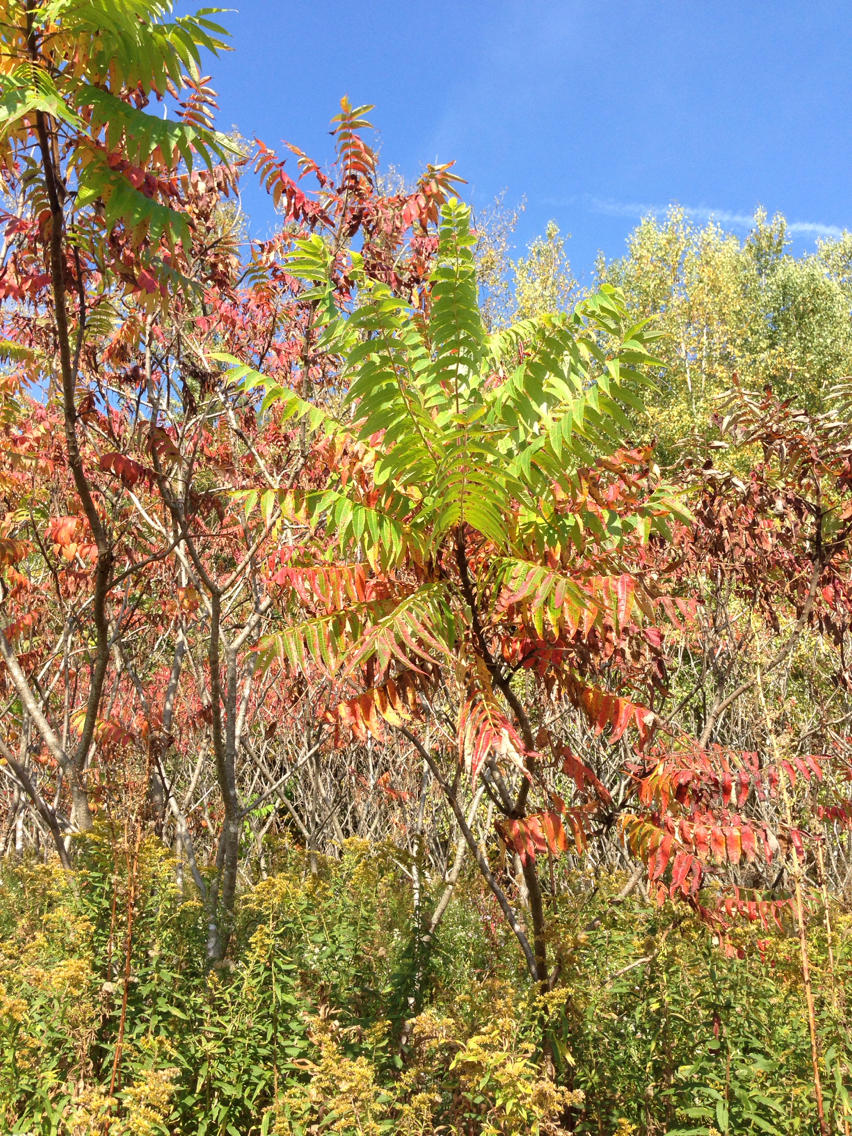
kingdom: Plantae
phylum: Tracheophyta
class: Magnoliopsida
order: Sapindales
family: Anacardiaceae
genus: Rhus
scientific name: Rhus typhina
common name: Staghorn sumac
